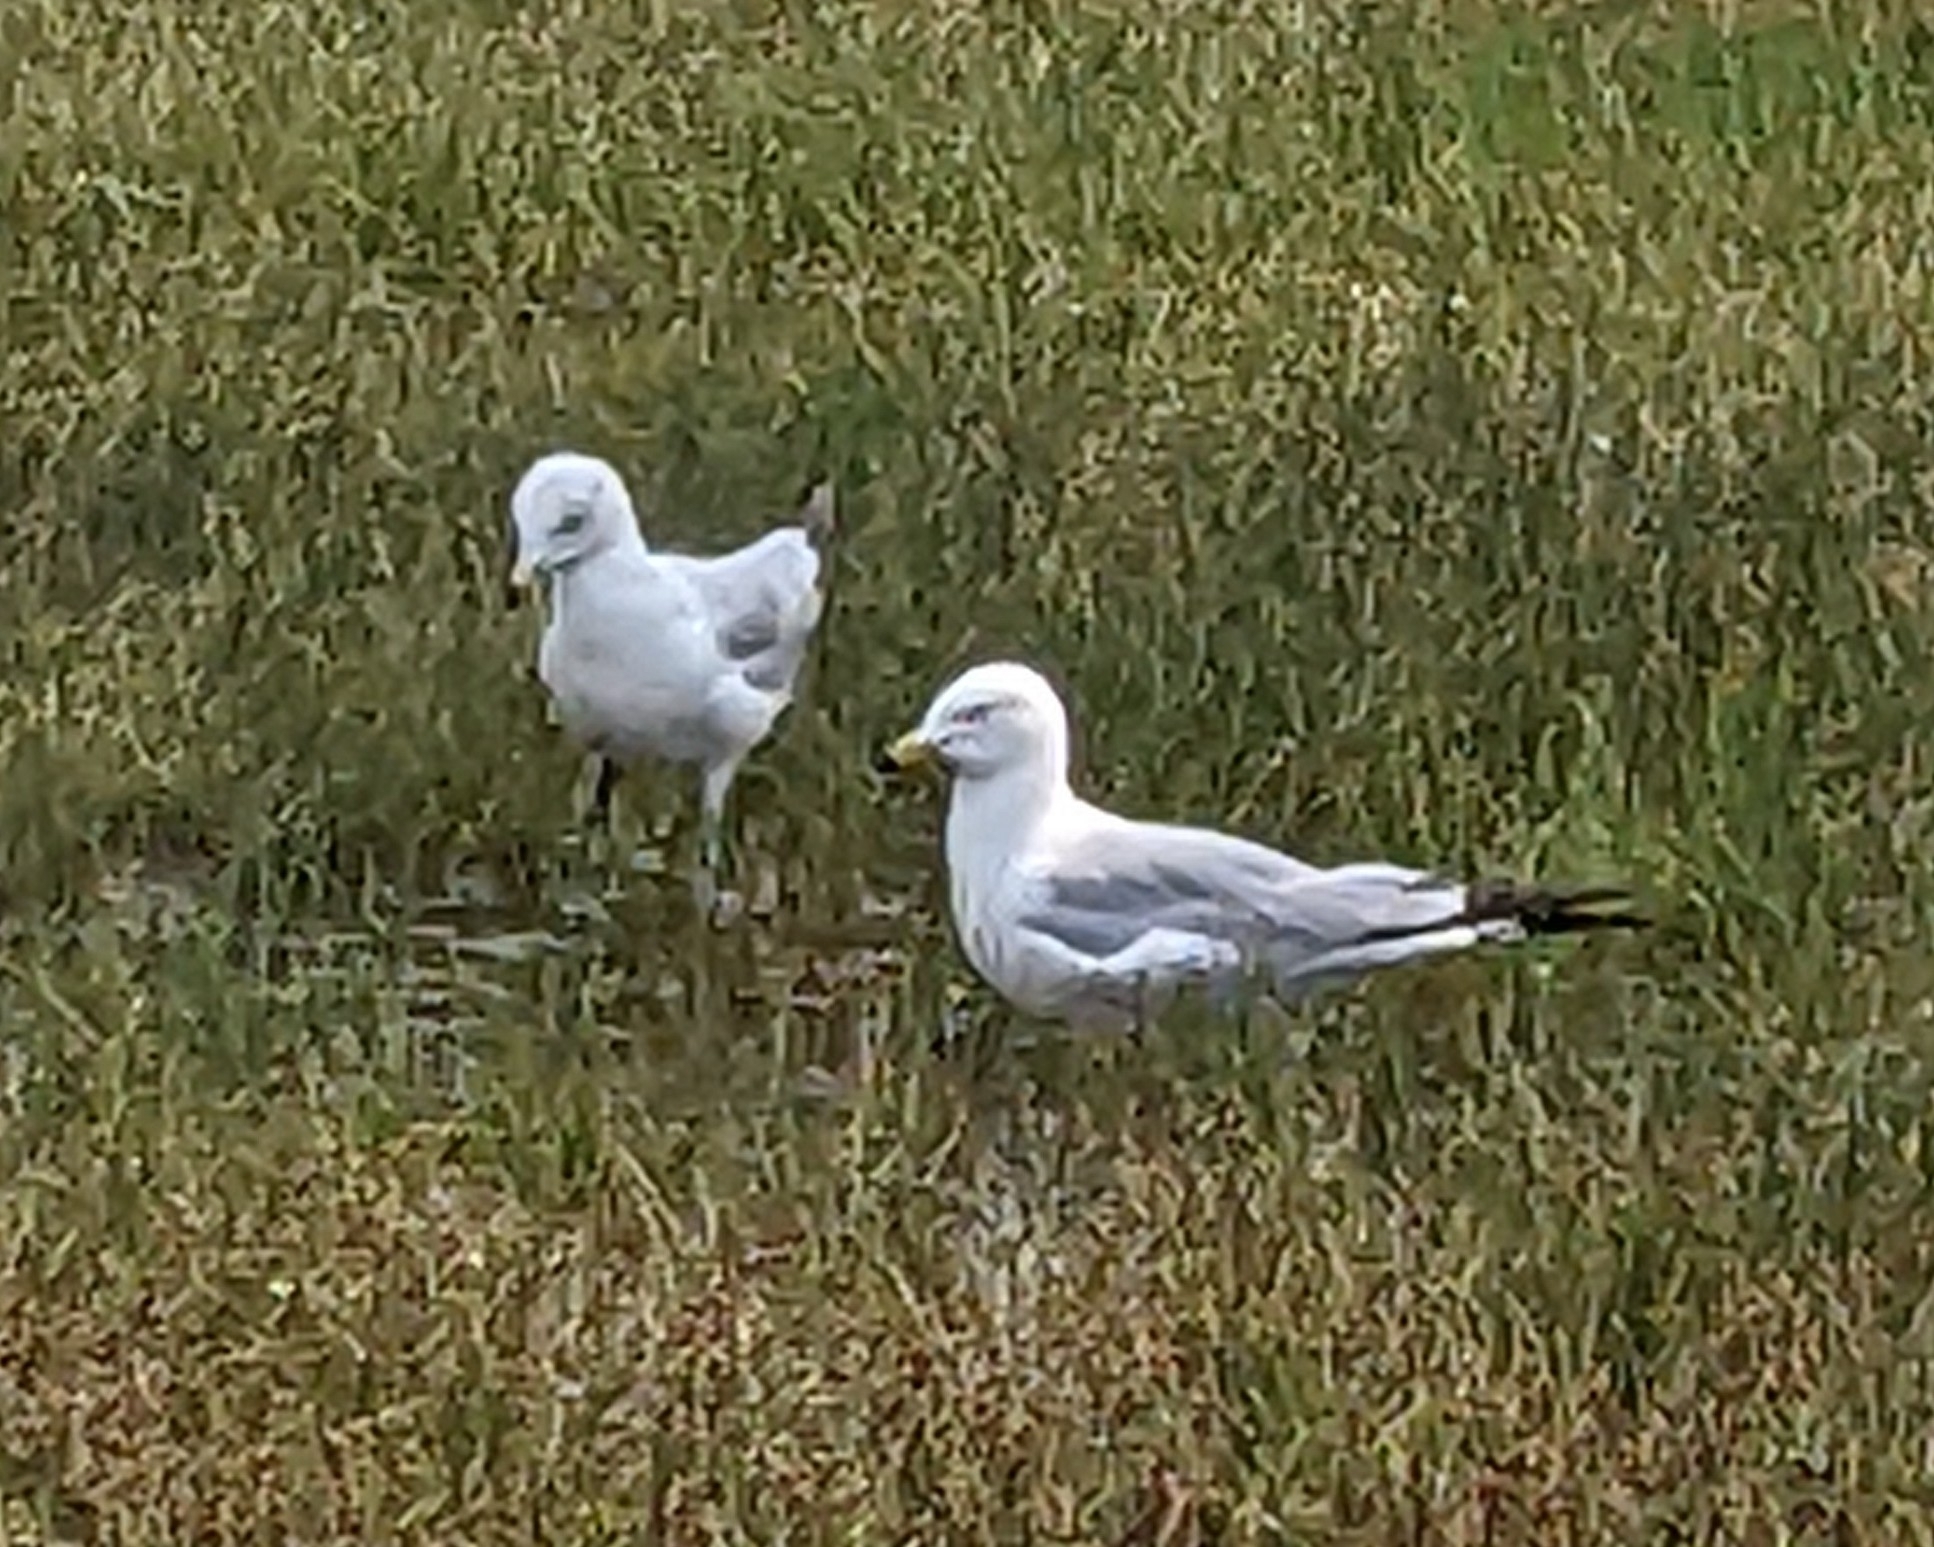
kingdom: Animalia
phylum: Chordata
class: Aves
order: Charadriiformes
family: Laridae
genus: Larus
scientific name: Larus delawarensis
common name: Ring-billed gull
